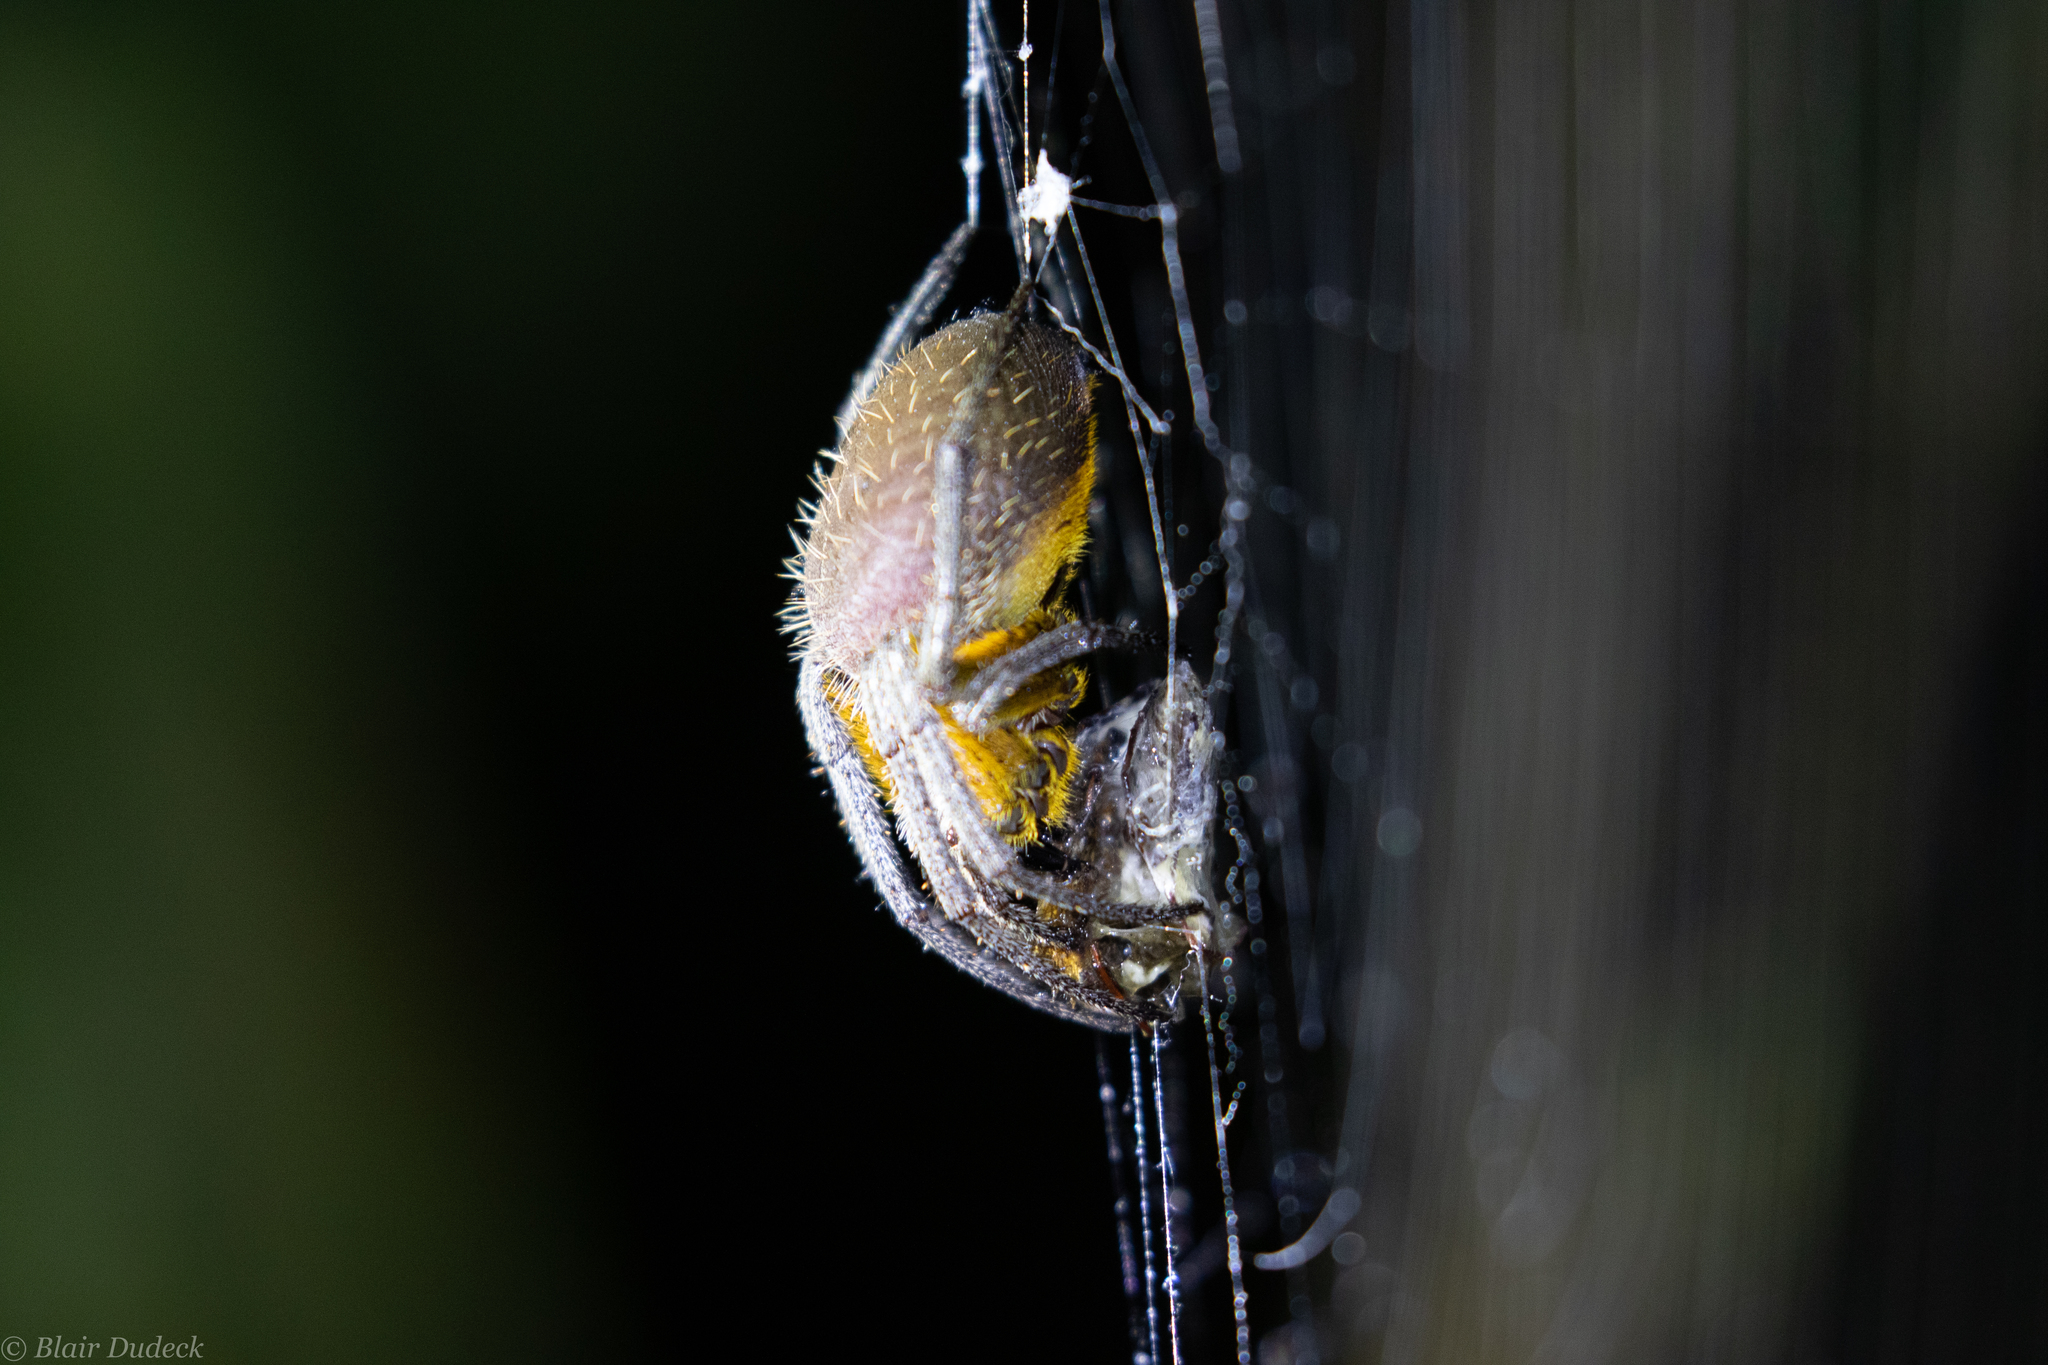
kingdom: Animalia
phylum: Arthropoda
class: Arachnida
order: Araneae
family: Araneidae
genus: Eriophora
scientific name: Eriophora
